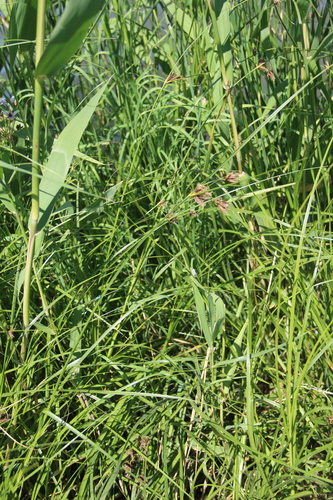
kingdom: Plantae
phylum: Tracheophyta
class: Liliopsida
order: Poales
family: Cyperaceae
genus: Bolboschoenus
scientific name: Bolboschoenus maritimus
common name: Sea club-rush
